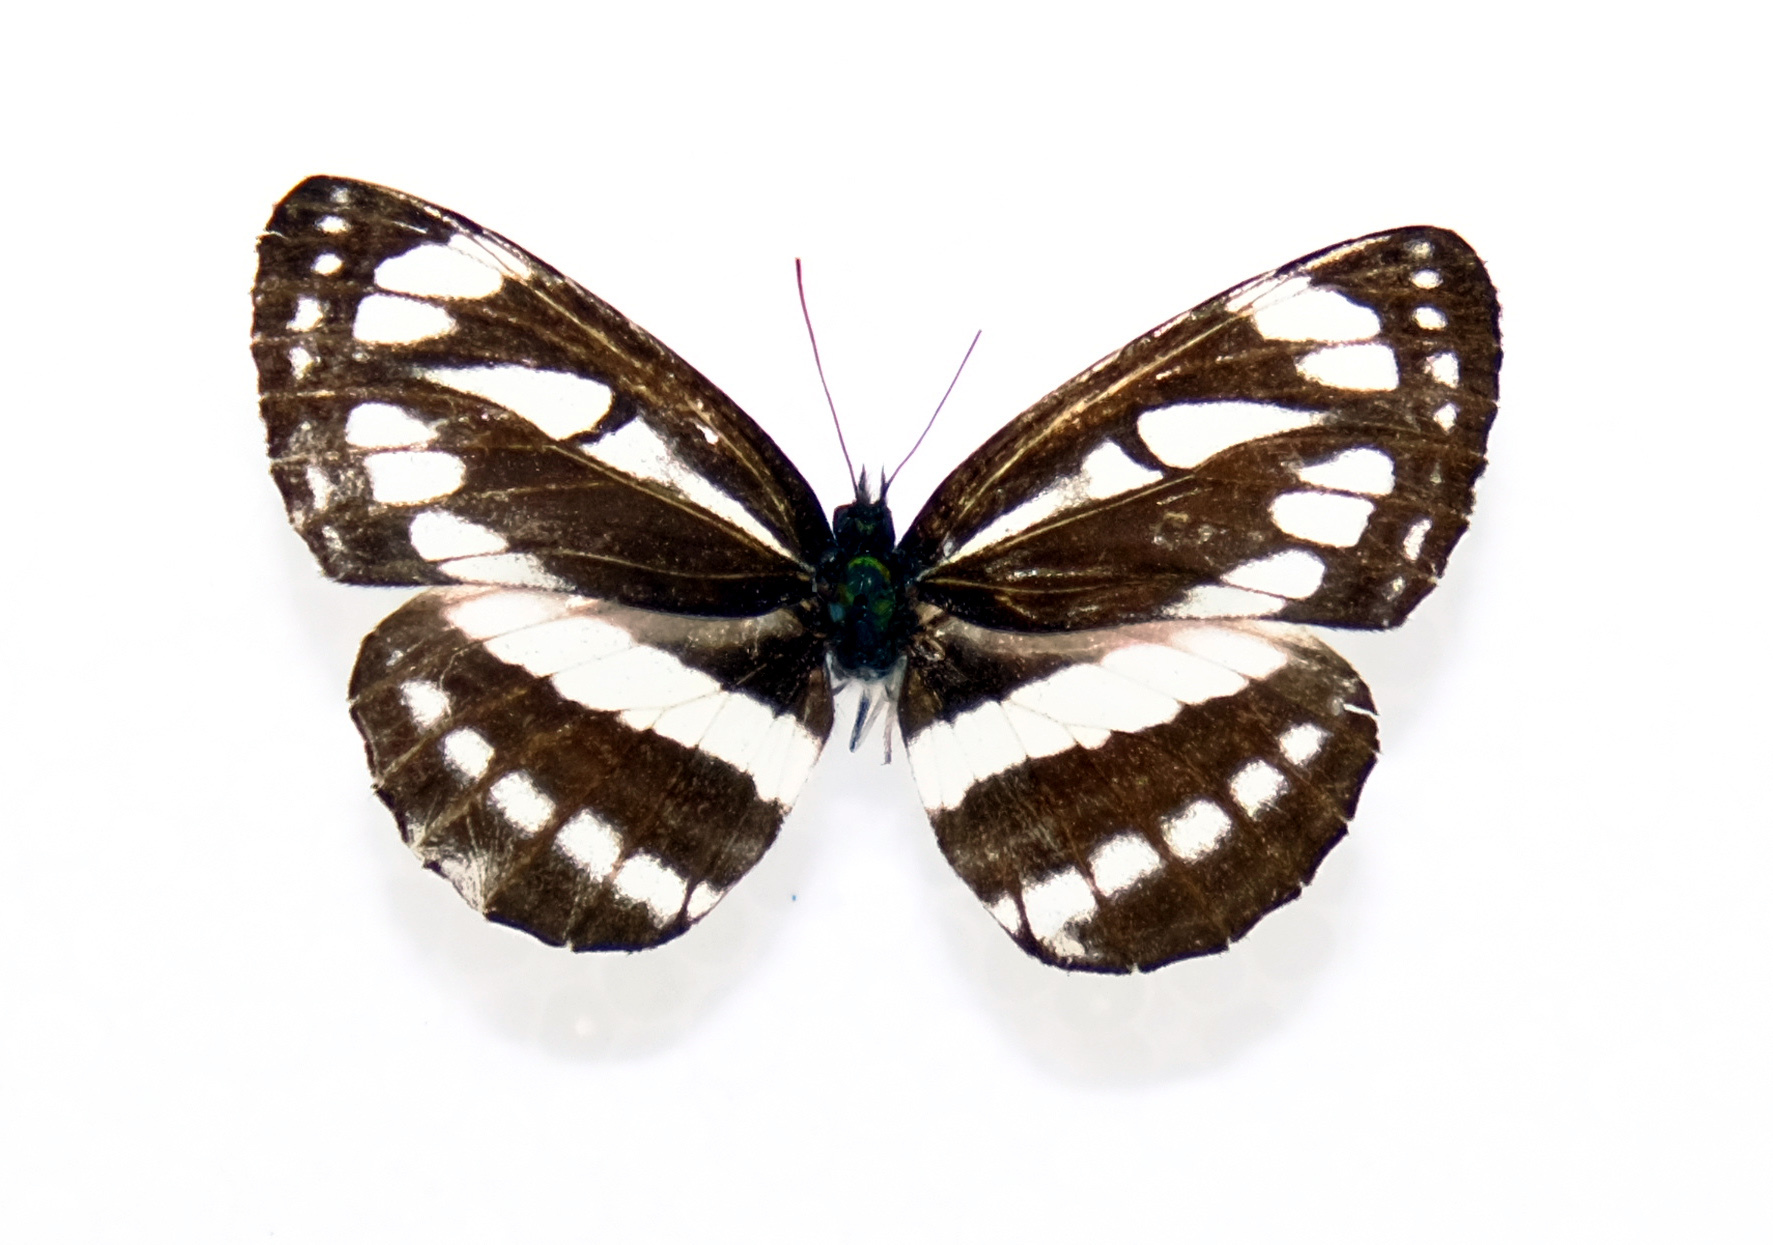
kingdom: Animalia
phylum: Arthropoda
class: Insecta
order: Lepidoptera
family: Nymphalidae
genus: Neptis
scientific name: Neptis sappho
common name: Common glider
